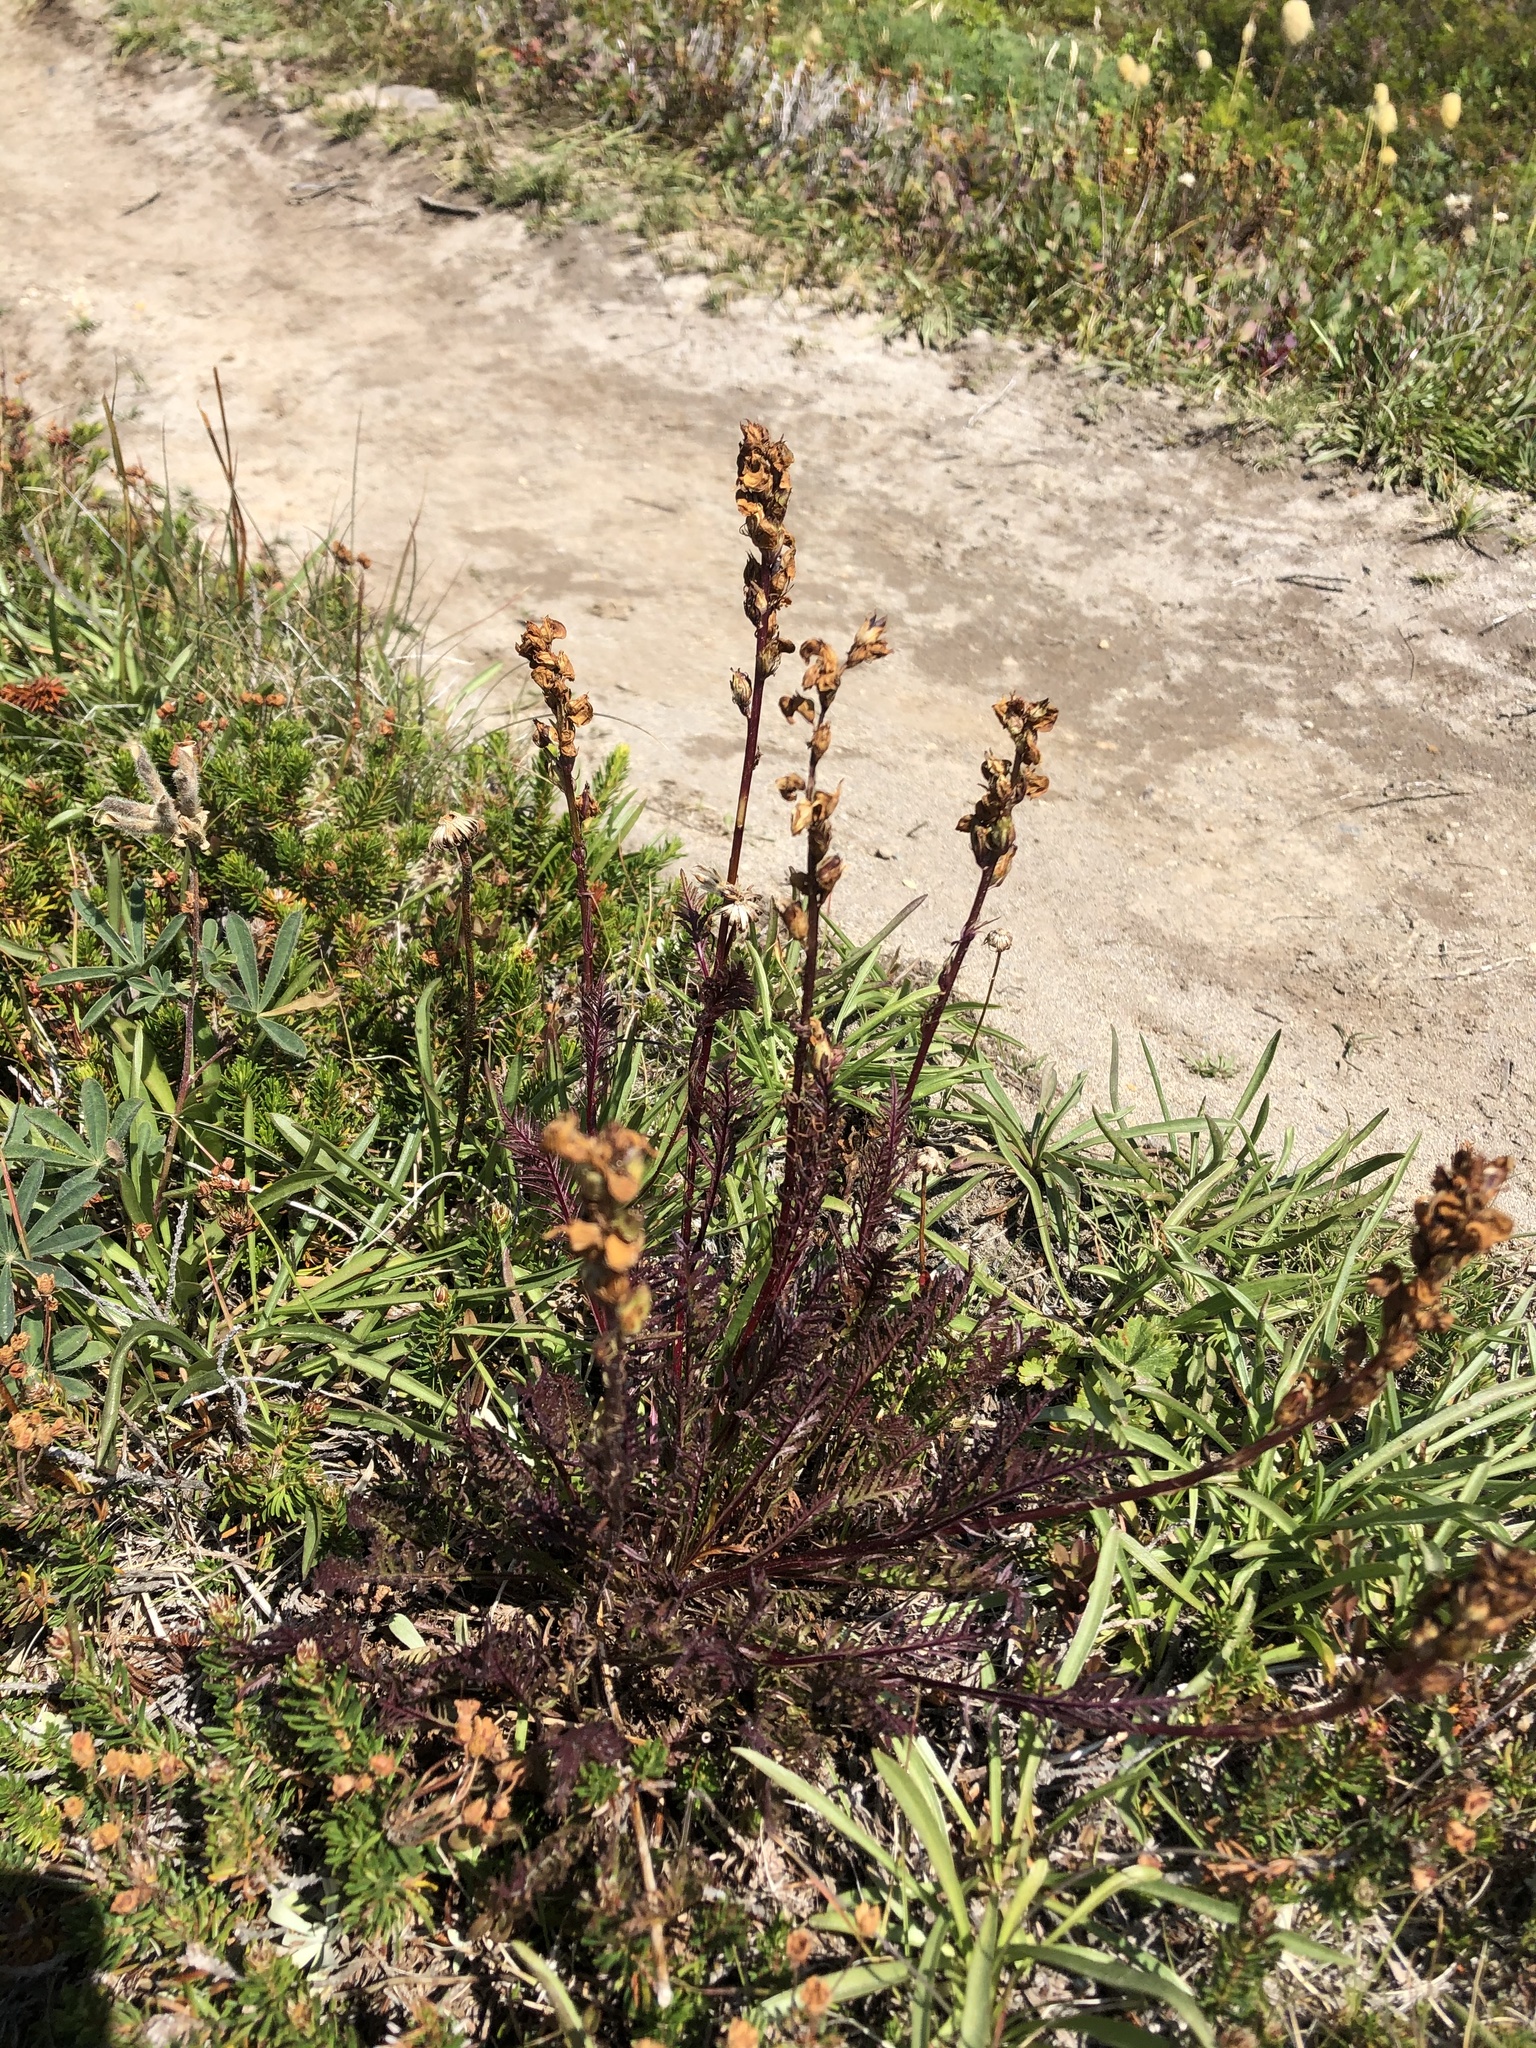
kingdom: Plantae
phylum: Tracheophyta
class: Magnoliopsida
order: Lamiales
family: Orobanchaceae
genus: Pedicularis
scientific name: Pedicularis contorta
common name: Coiled lousewort
